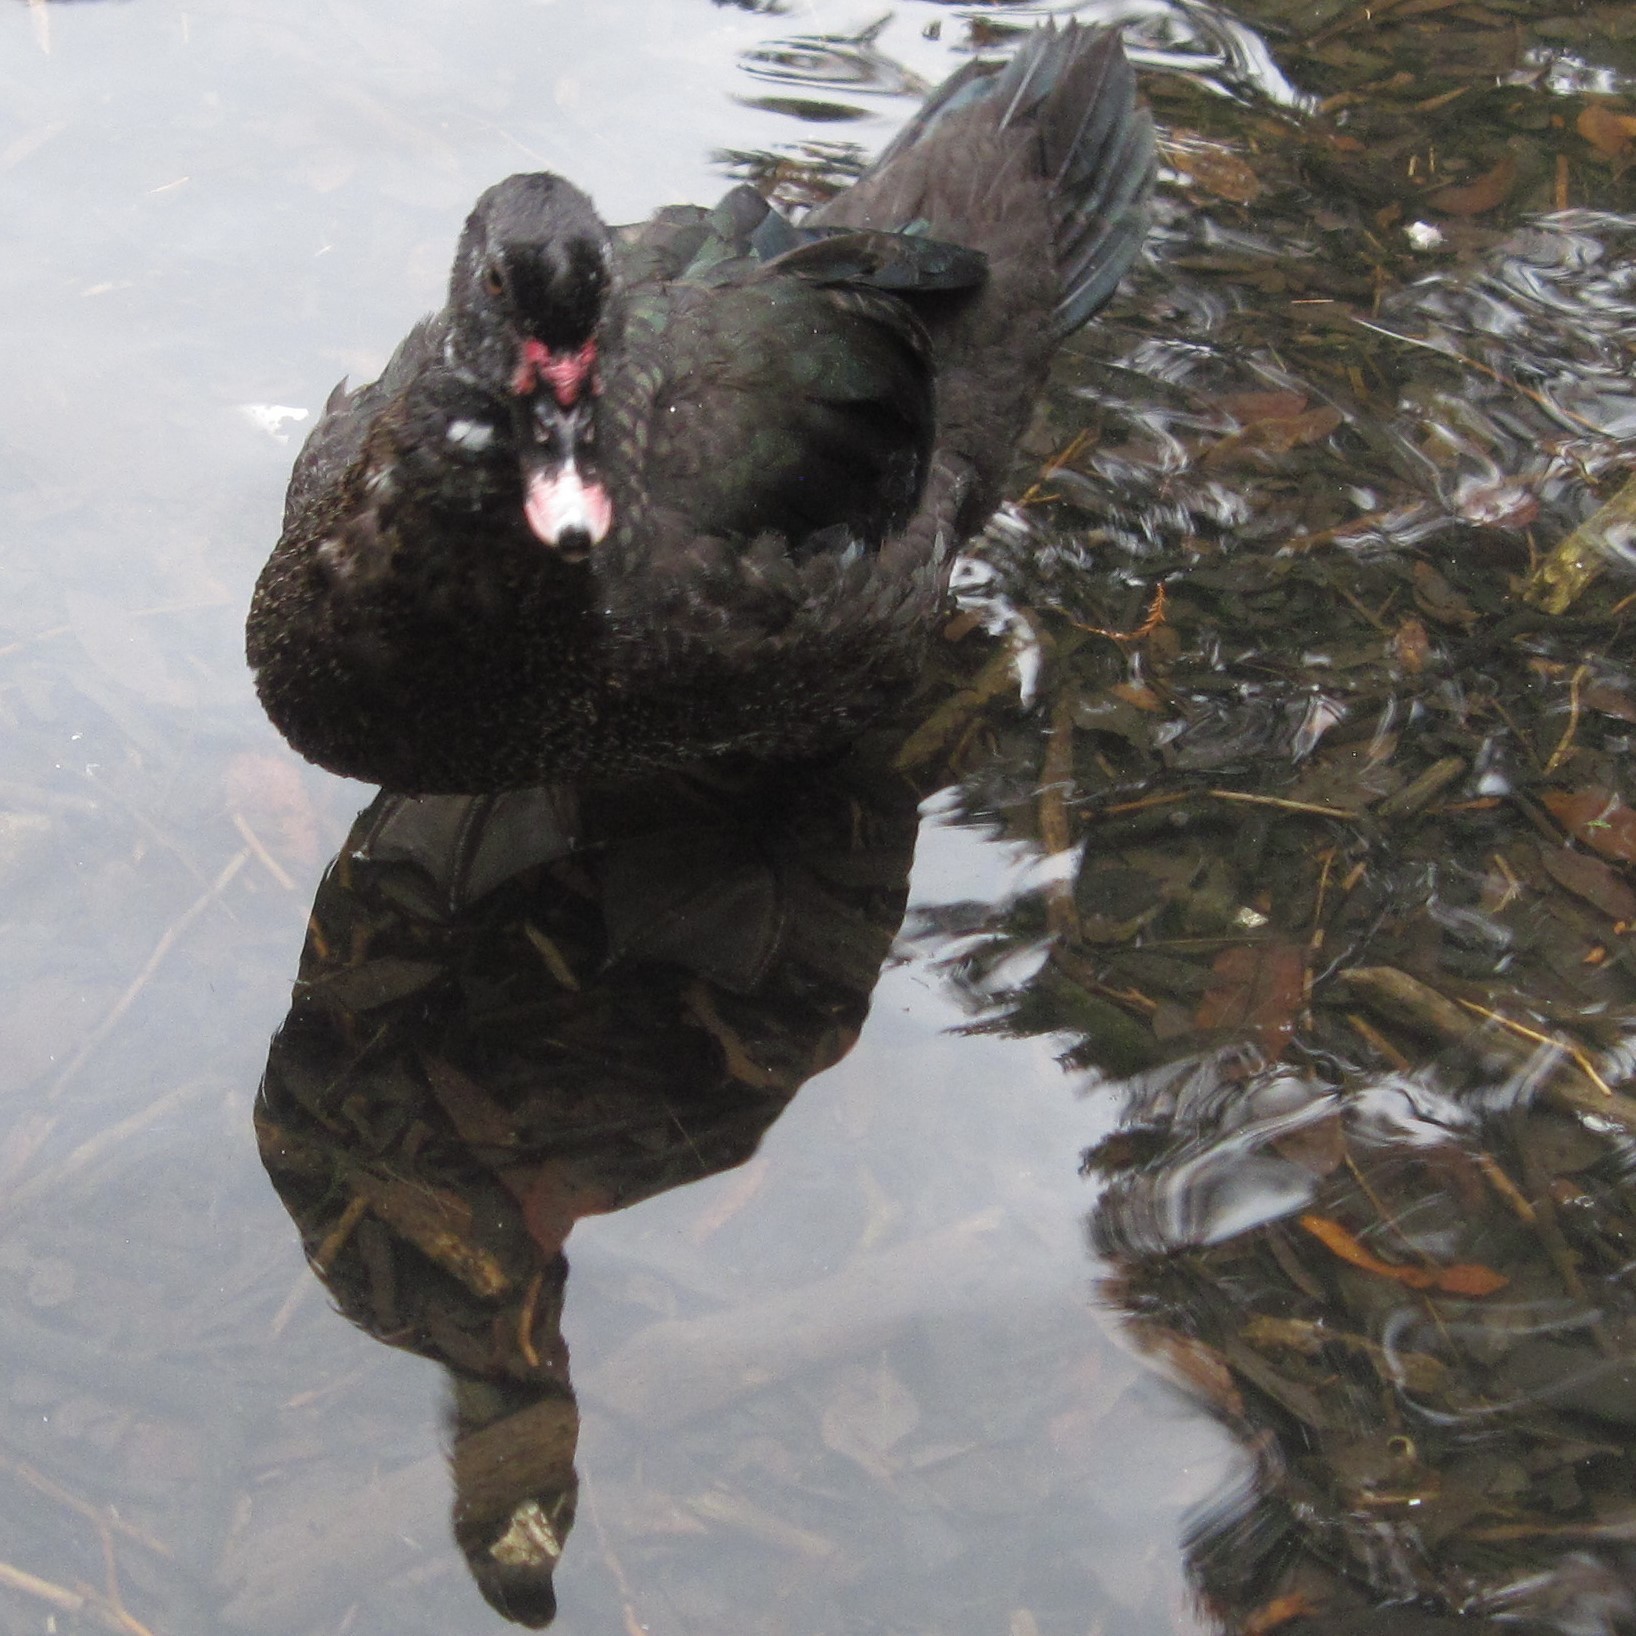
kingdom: Animalia
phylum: Chordata
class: Aves
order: Anseriformes
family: Anatidae
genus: Cairina
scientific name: Cairina moschata
